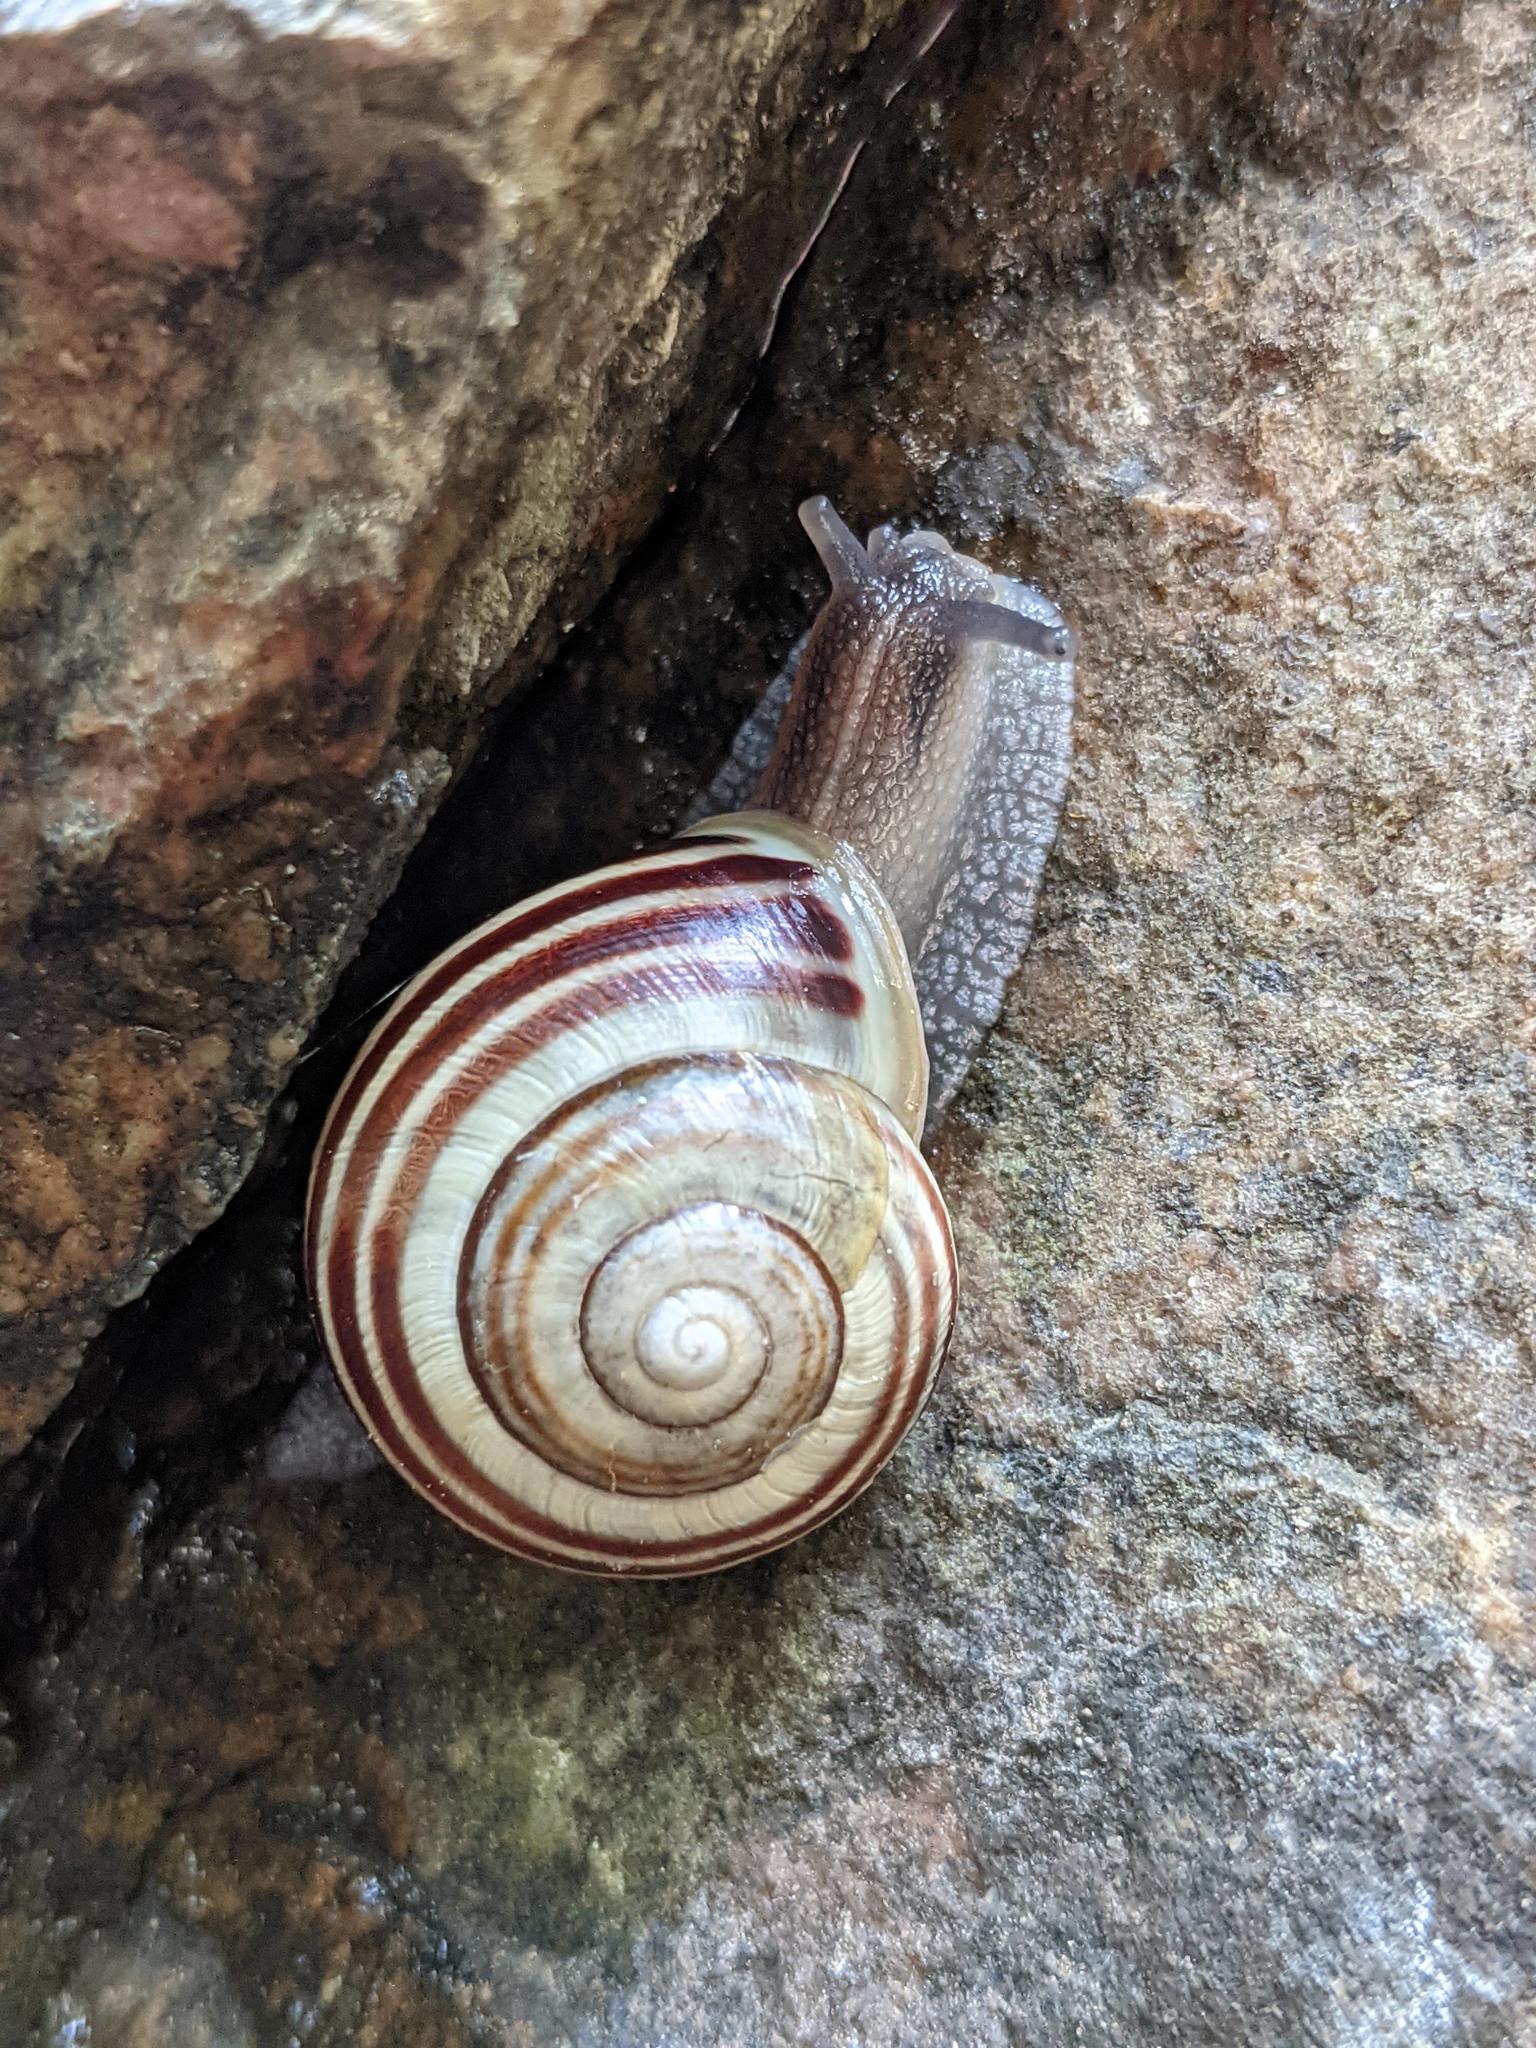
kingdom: Animalia
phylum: Mollusca
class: Gastropoda
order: Stylommatophora
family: Helicidae
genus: Cepaea
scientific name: Cepaea hortensis
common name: White-lip gardensnail
